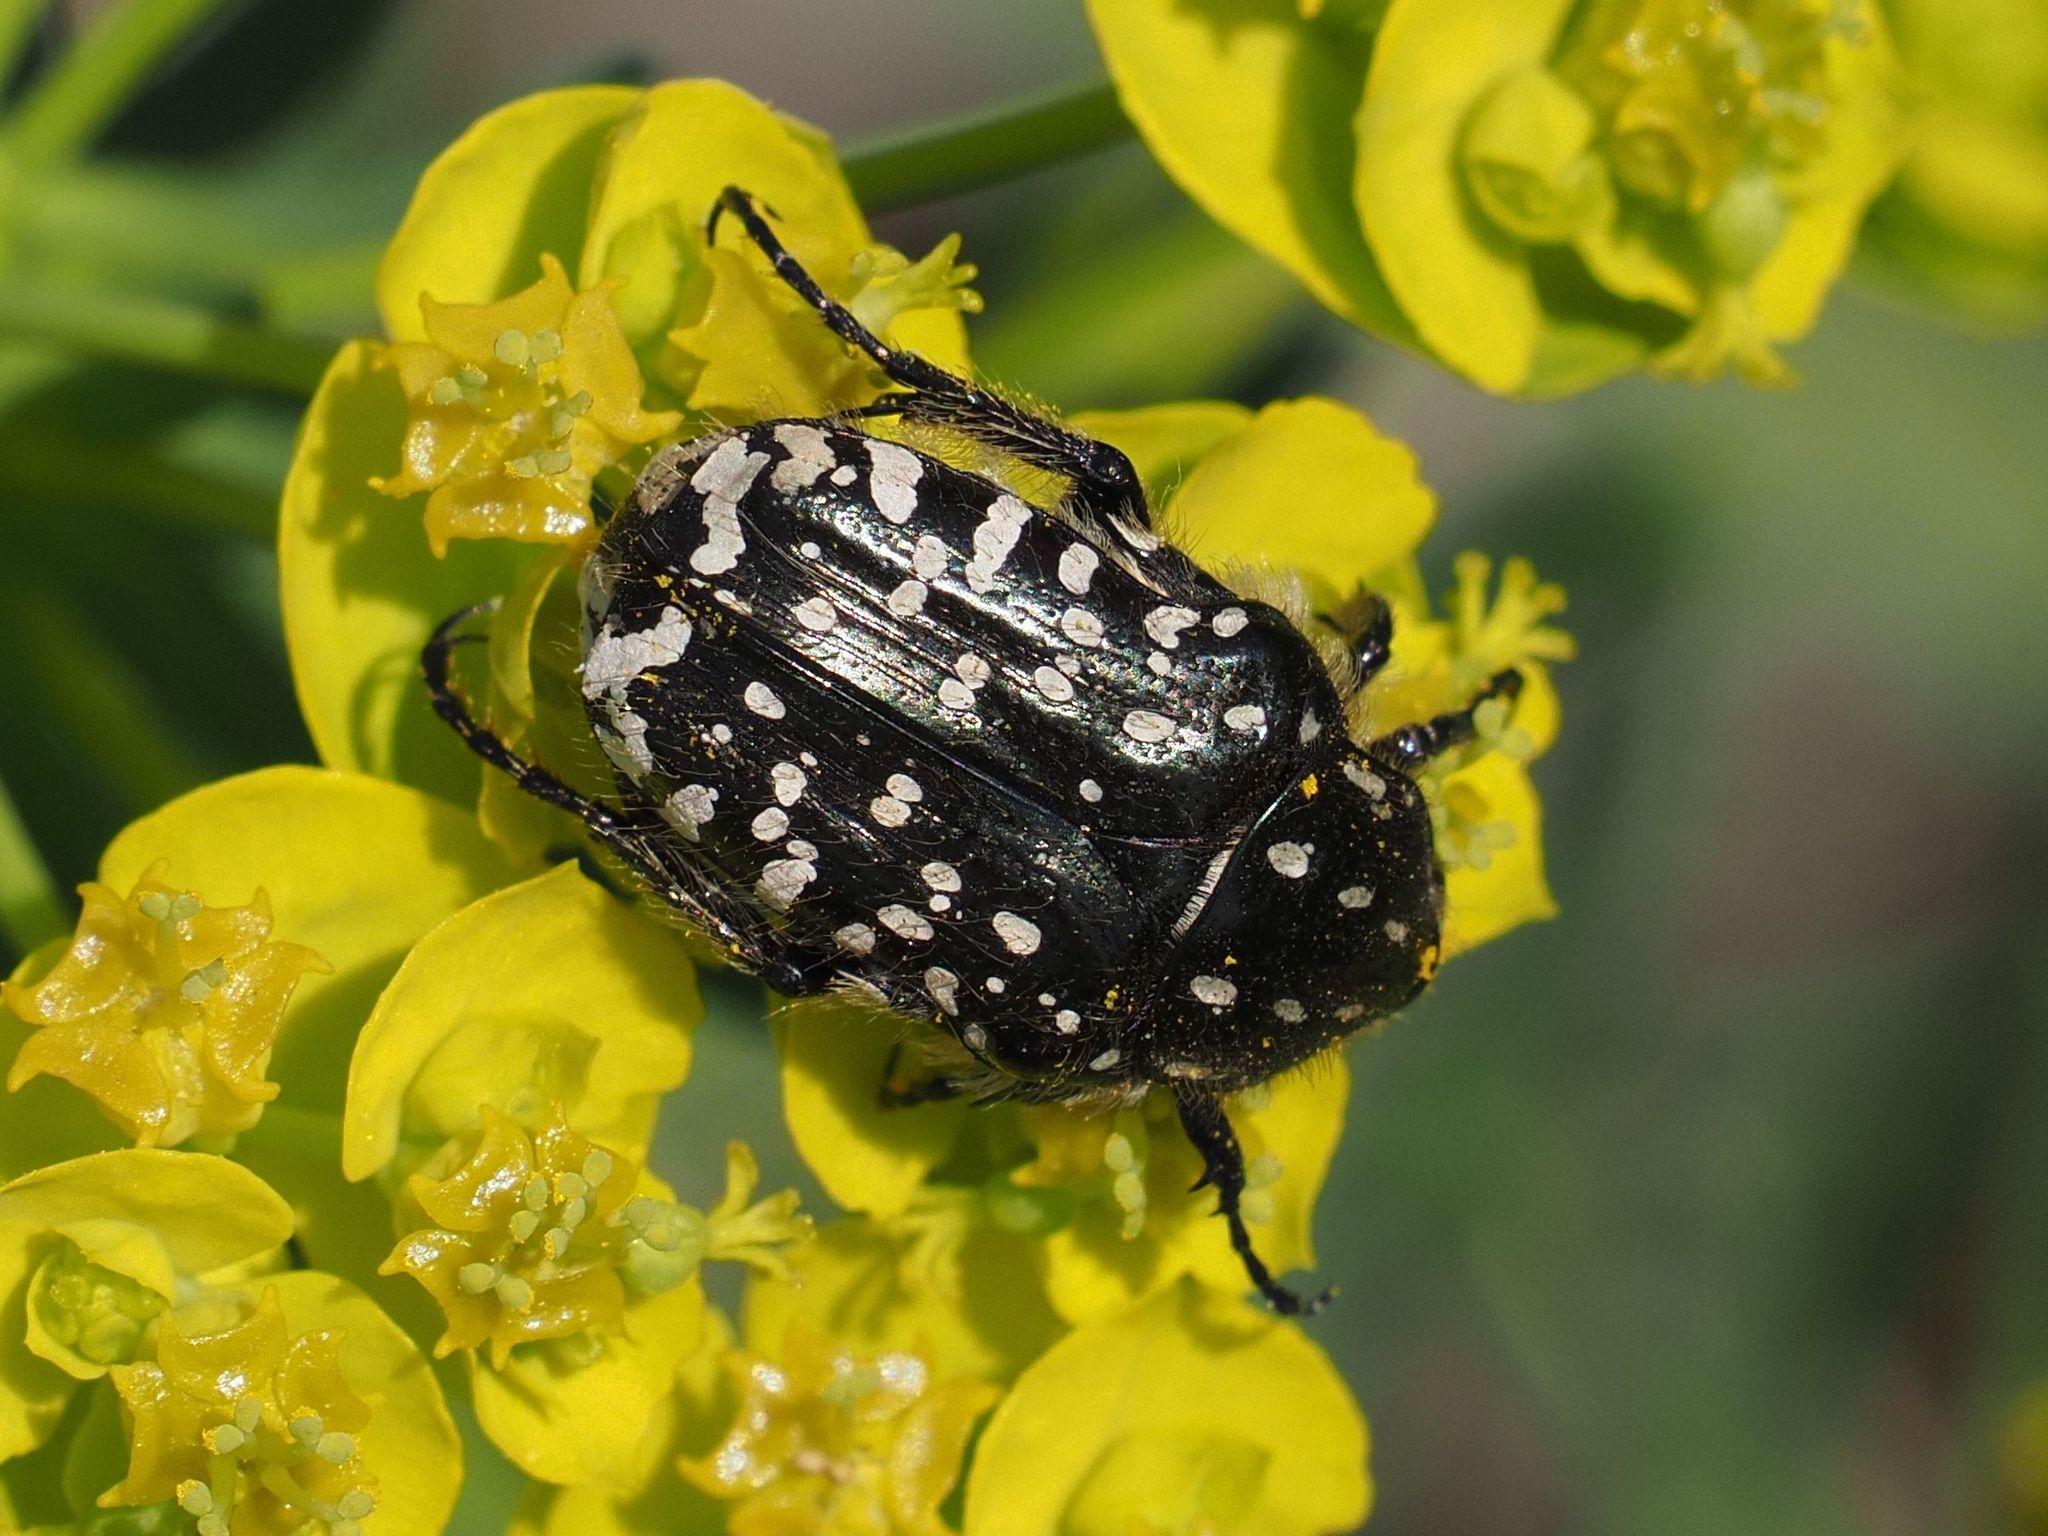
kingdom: Animalia
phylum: Arthropoda
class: Insecta
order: Coleoptera
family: Scarabaeidae
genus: Oxythyrea
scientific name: Oxythyrea funesta
